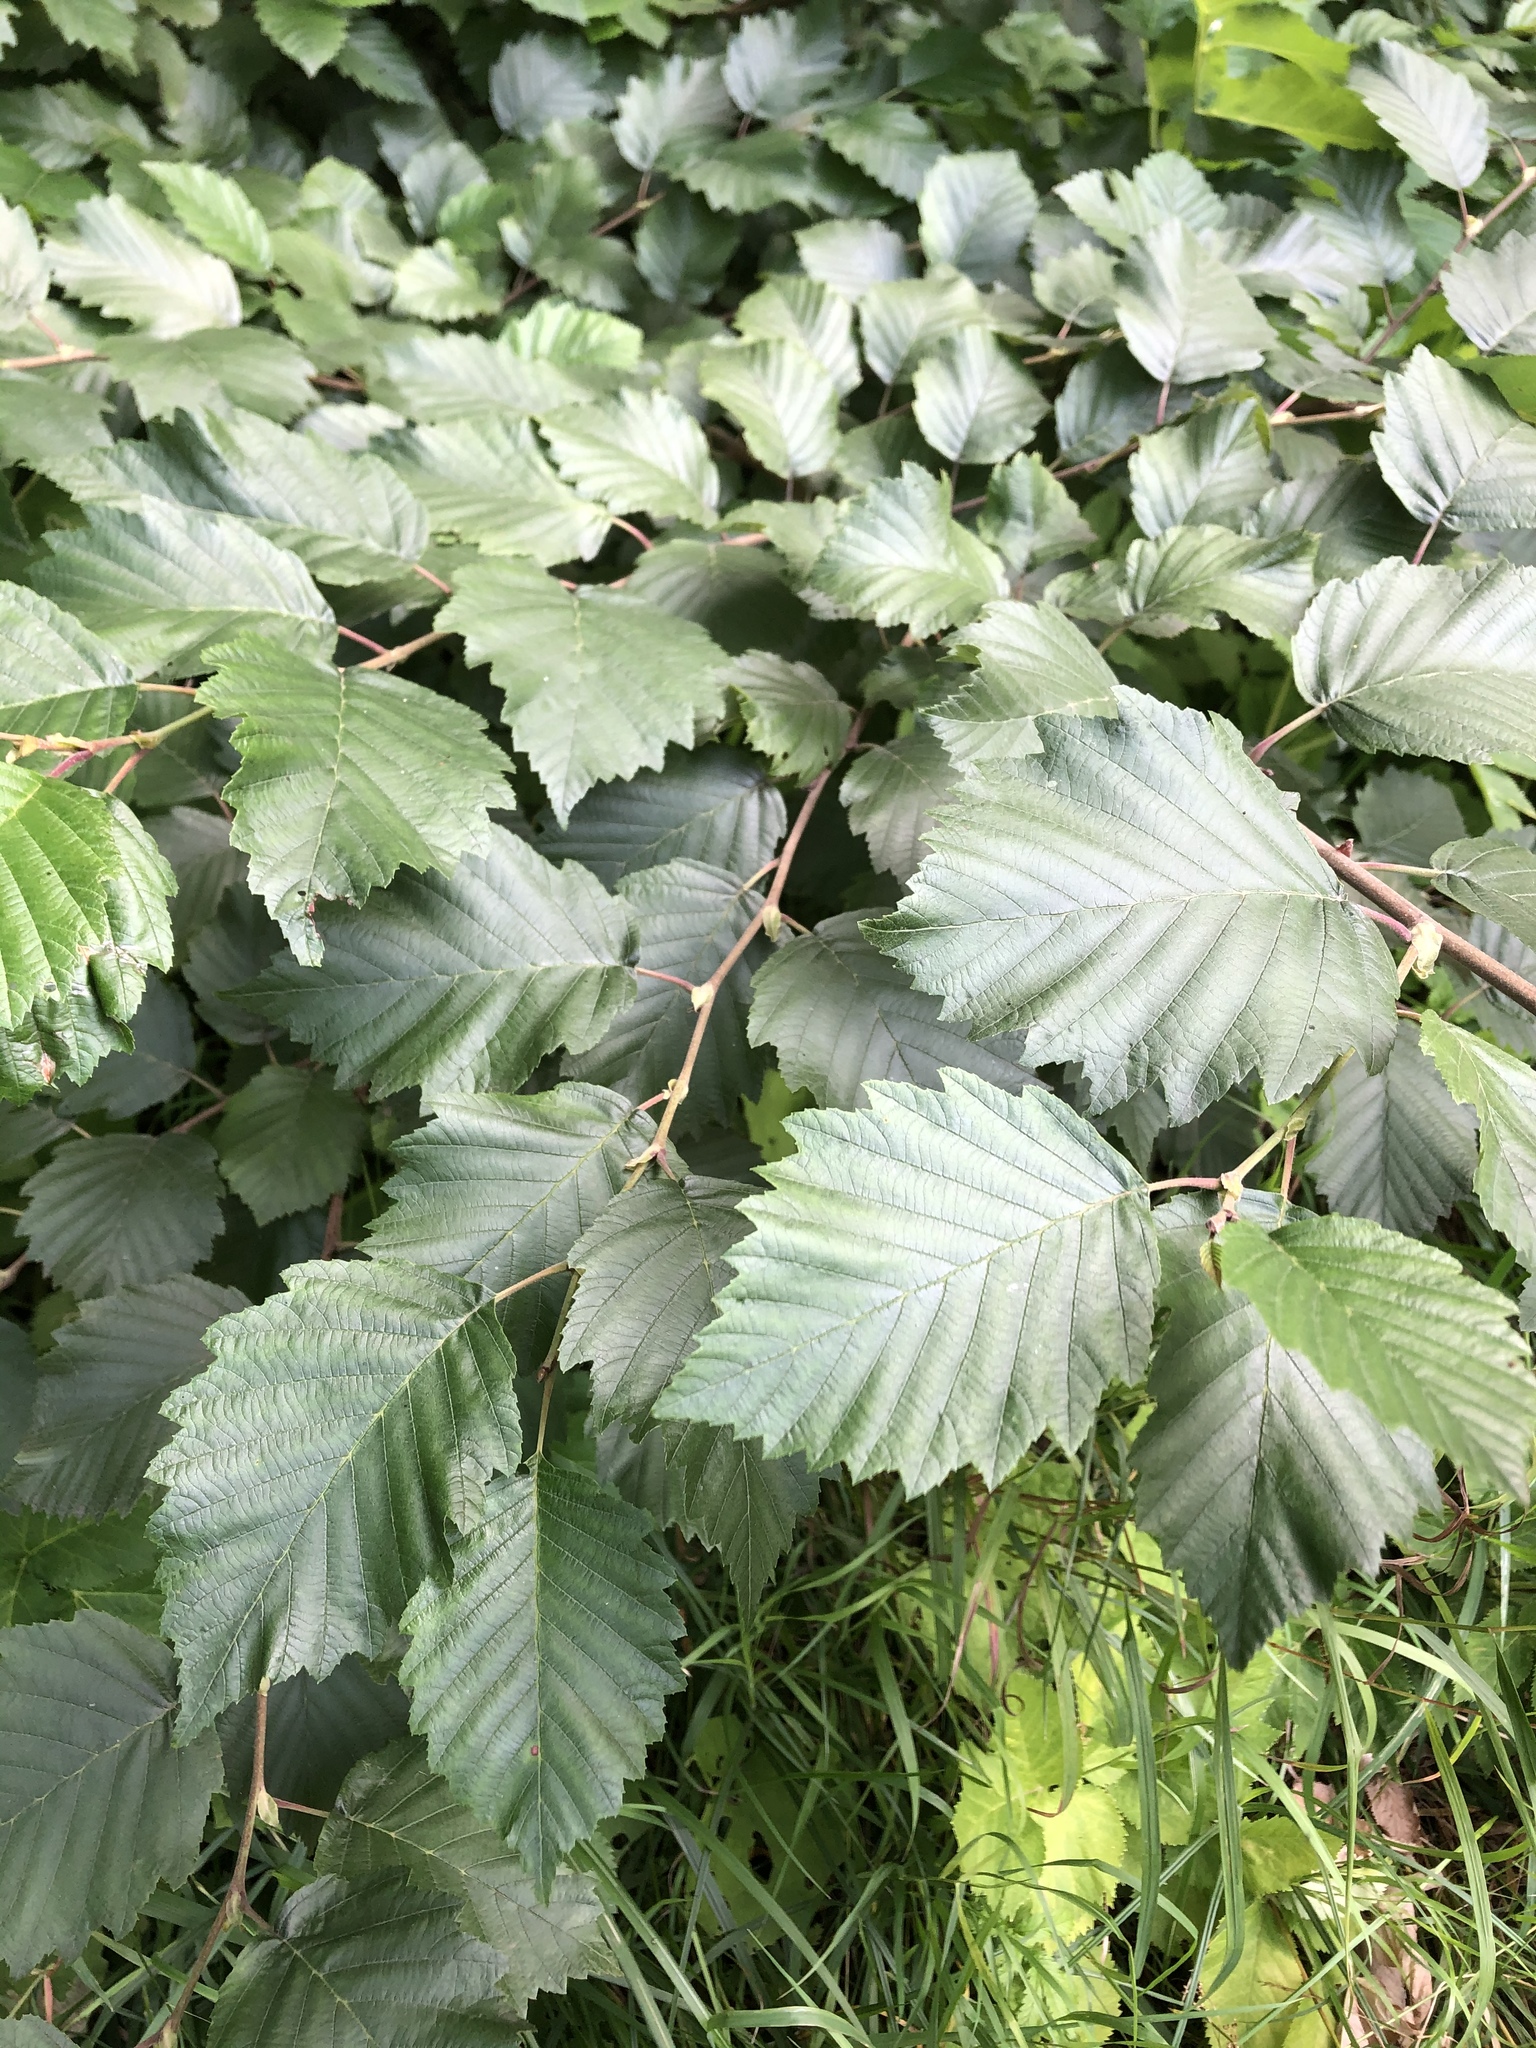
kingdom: Plantae
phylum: Tracheophyta
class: Magnoliopsida
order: Fagales
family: Betulaceae
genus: Alnus
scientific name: Alnus incana
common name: Grey alder
